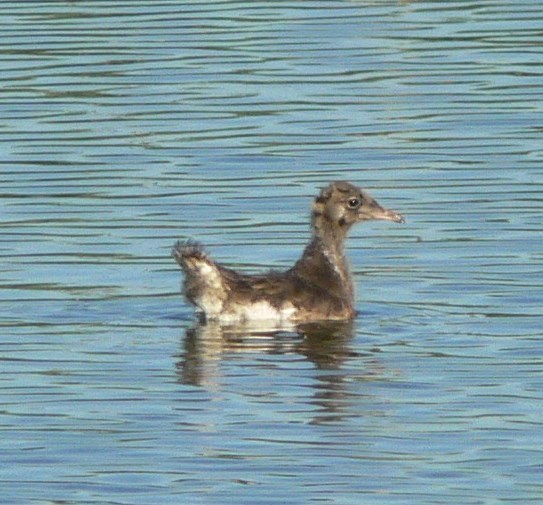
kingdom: Animalia
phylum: Chordata
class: Aves
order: Charadriiformes
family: Laridae
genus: Chroicocephalus
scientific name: Chroicocephalus ridibundus
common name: Black-headed gull
